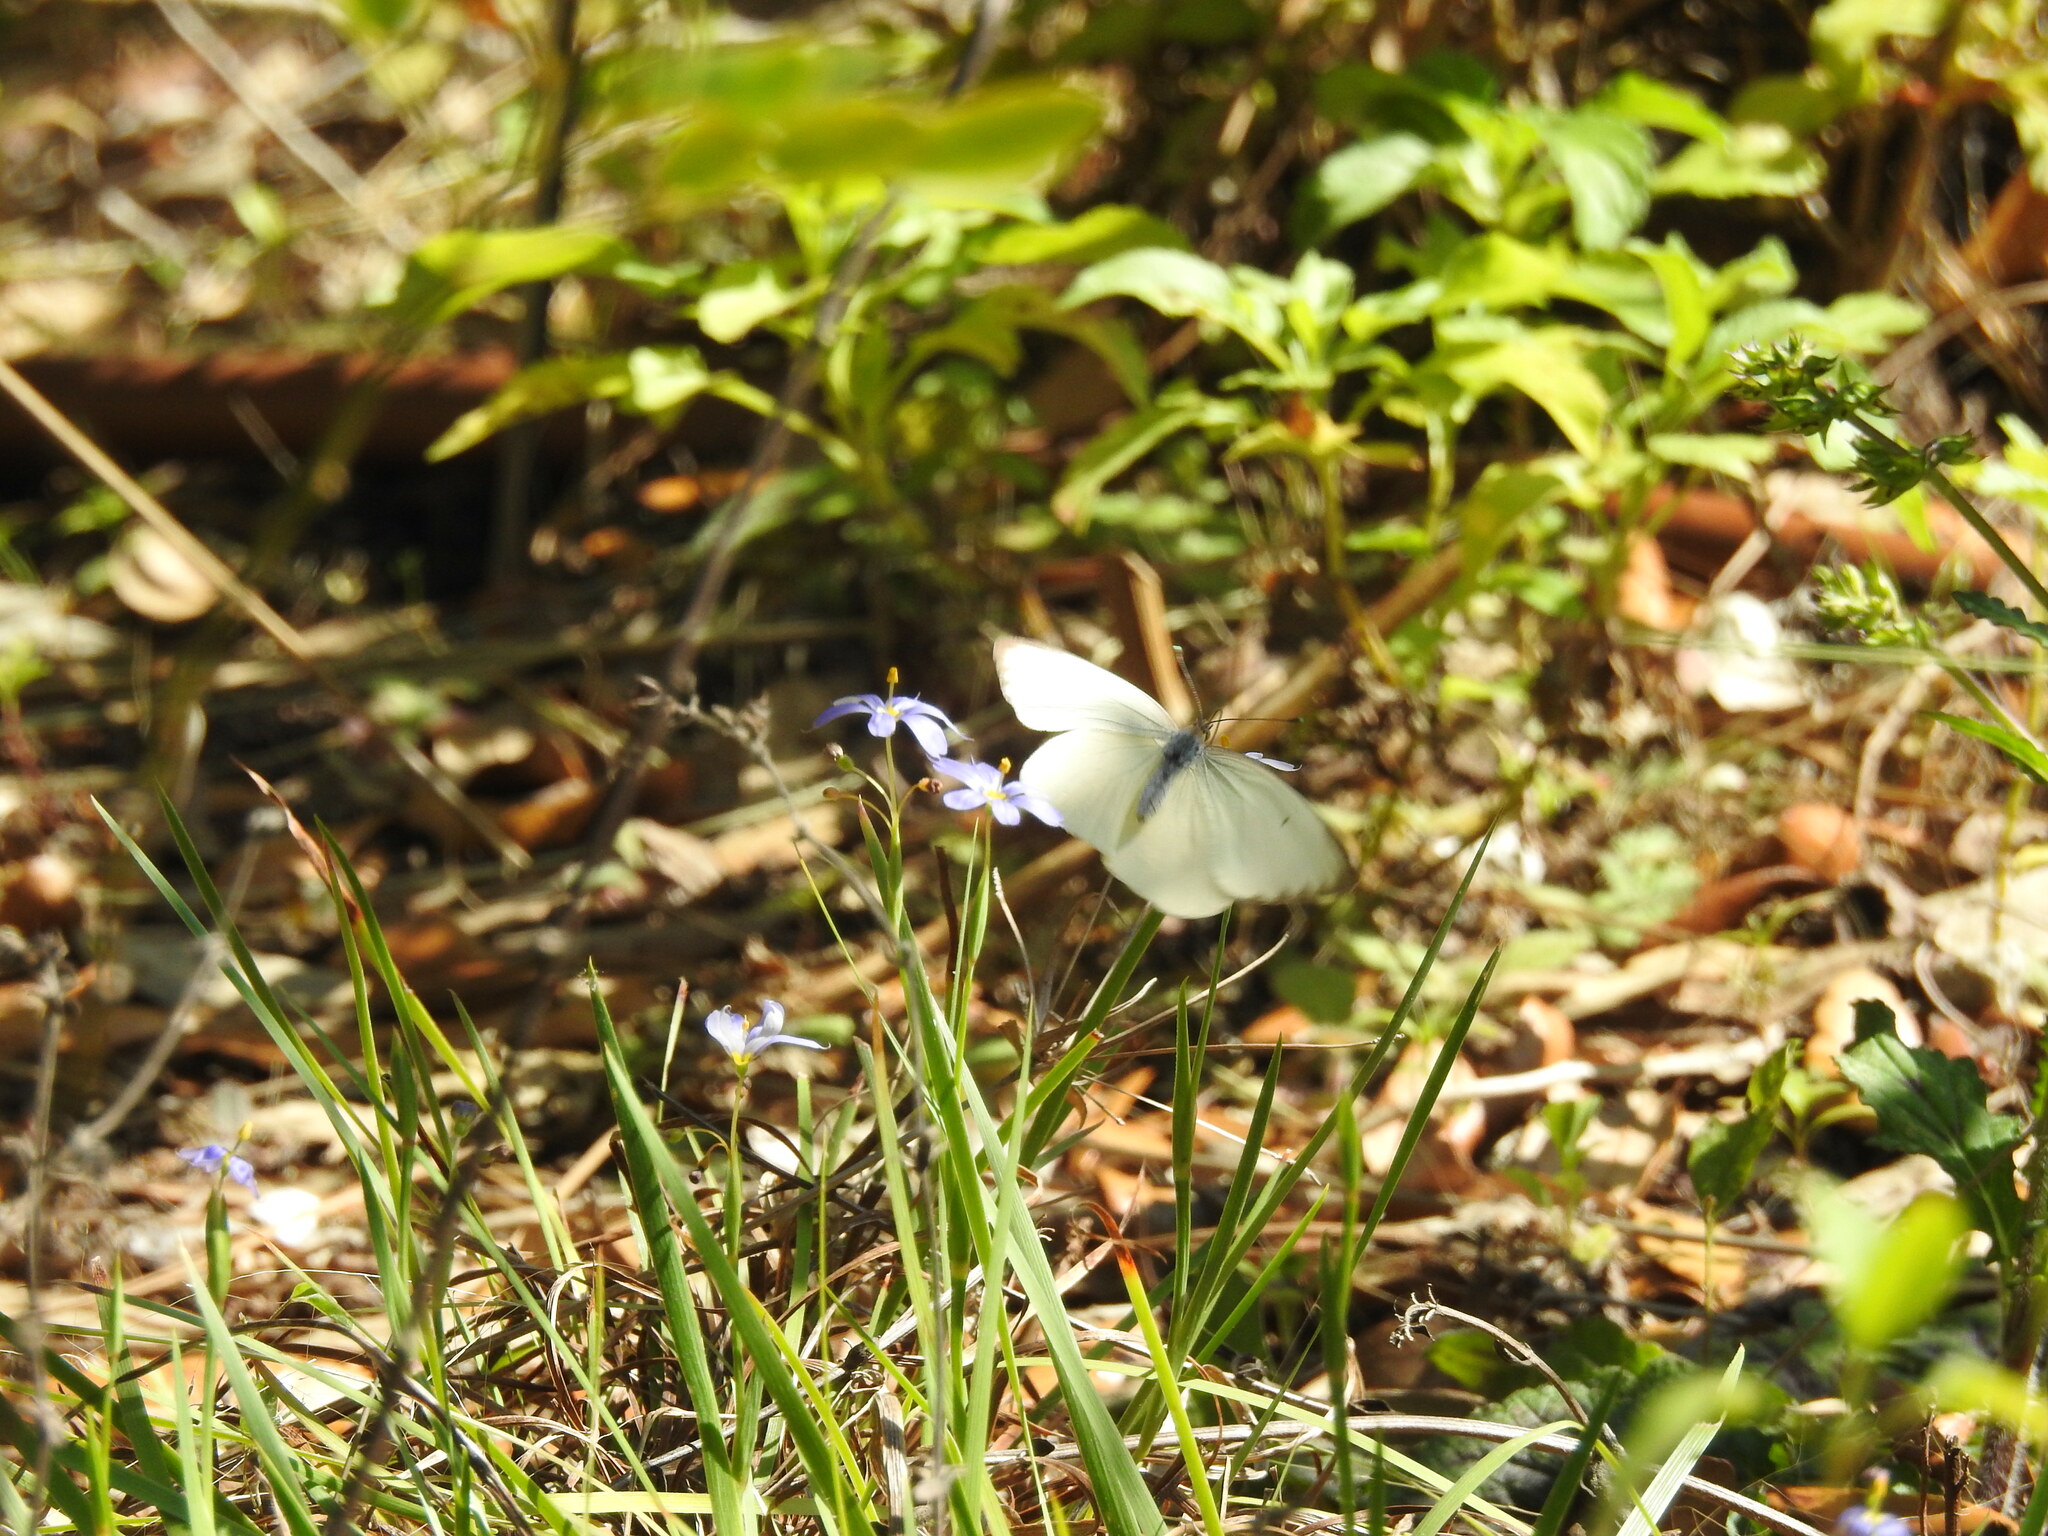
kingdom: Animalia
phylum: Arthropoda
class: Insecta
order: Lepidoptera
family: Pieridae
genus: Ascia
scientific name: Ascia monuste
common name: Great southern white
